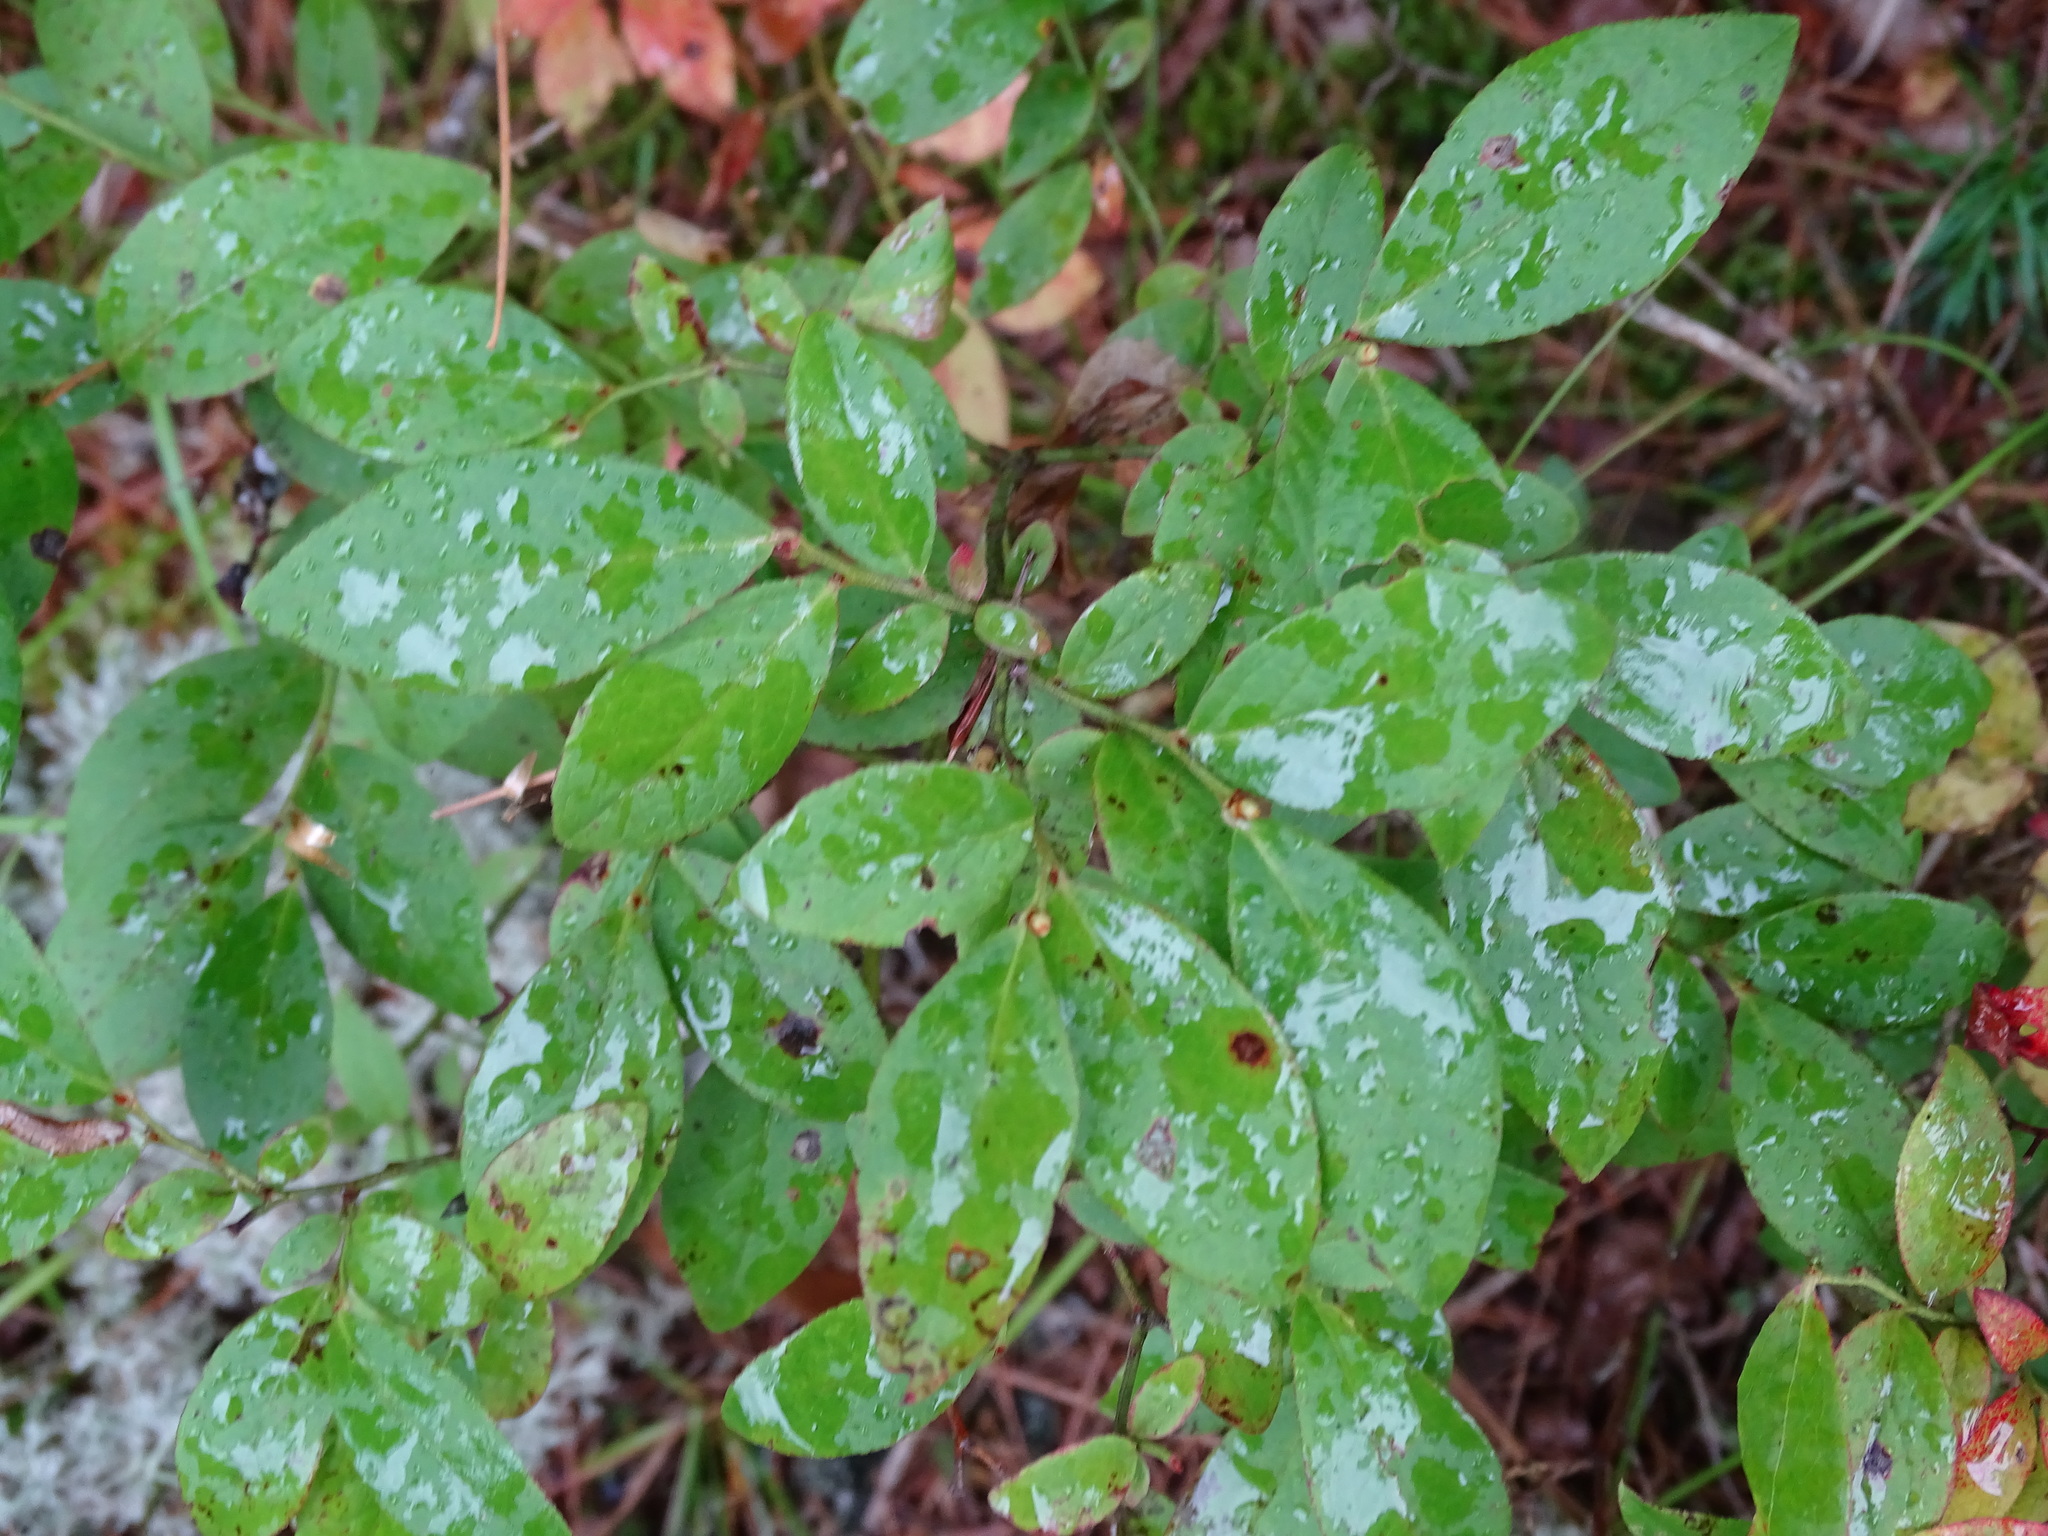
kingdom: Plantae
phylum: Tracheophyta
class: Magnoliopsida
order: Ericales
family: Ericaceae
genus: Vaccinium
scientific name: Vaccinium angustifolium
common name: Early lowbush blueberry
